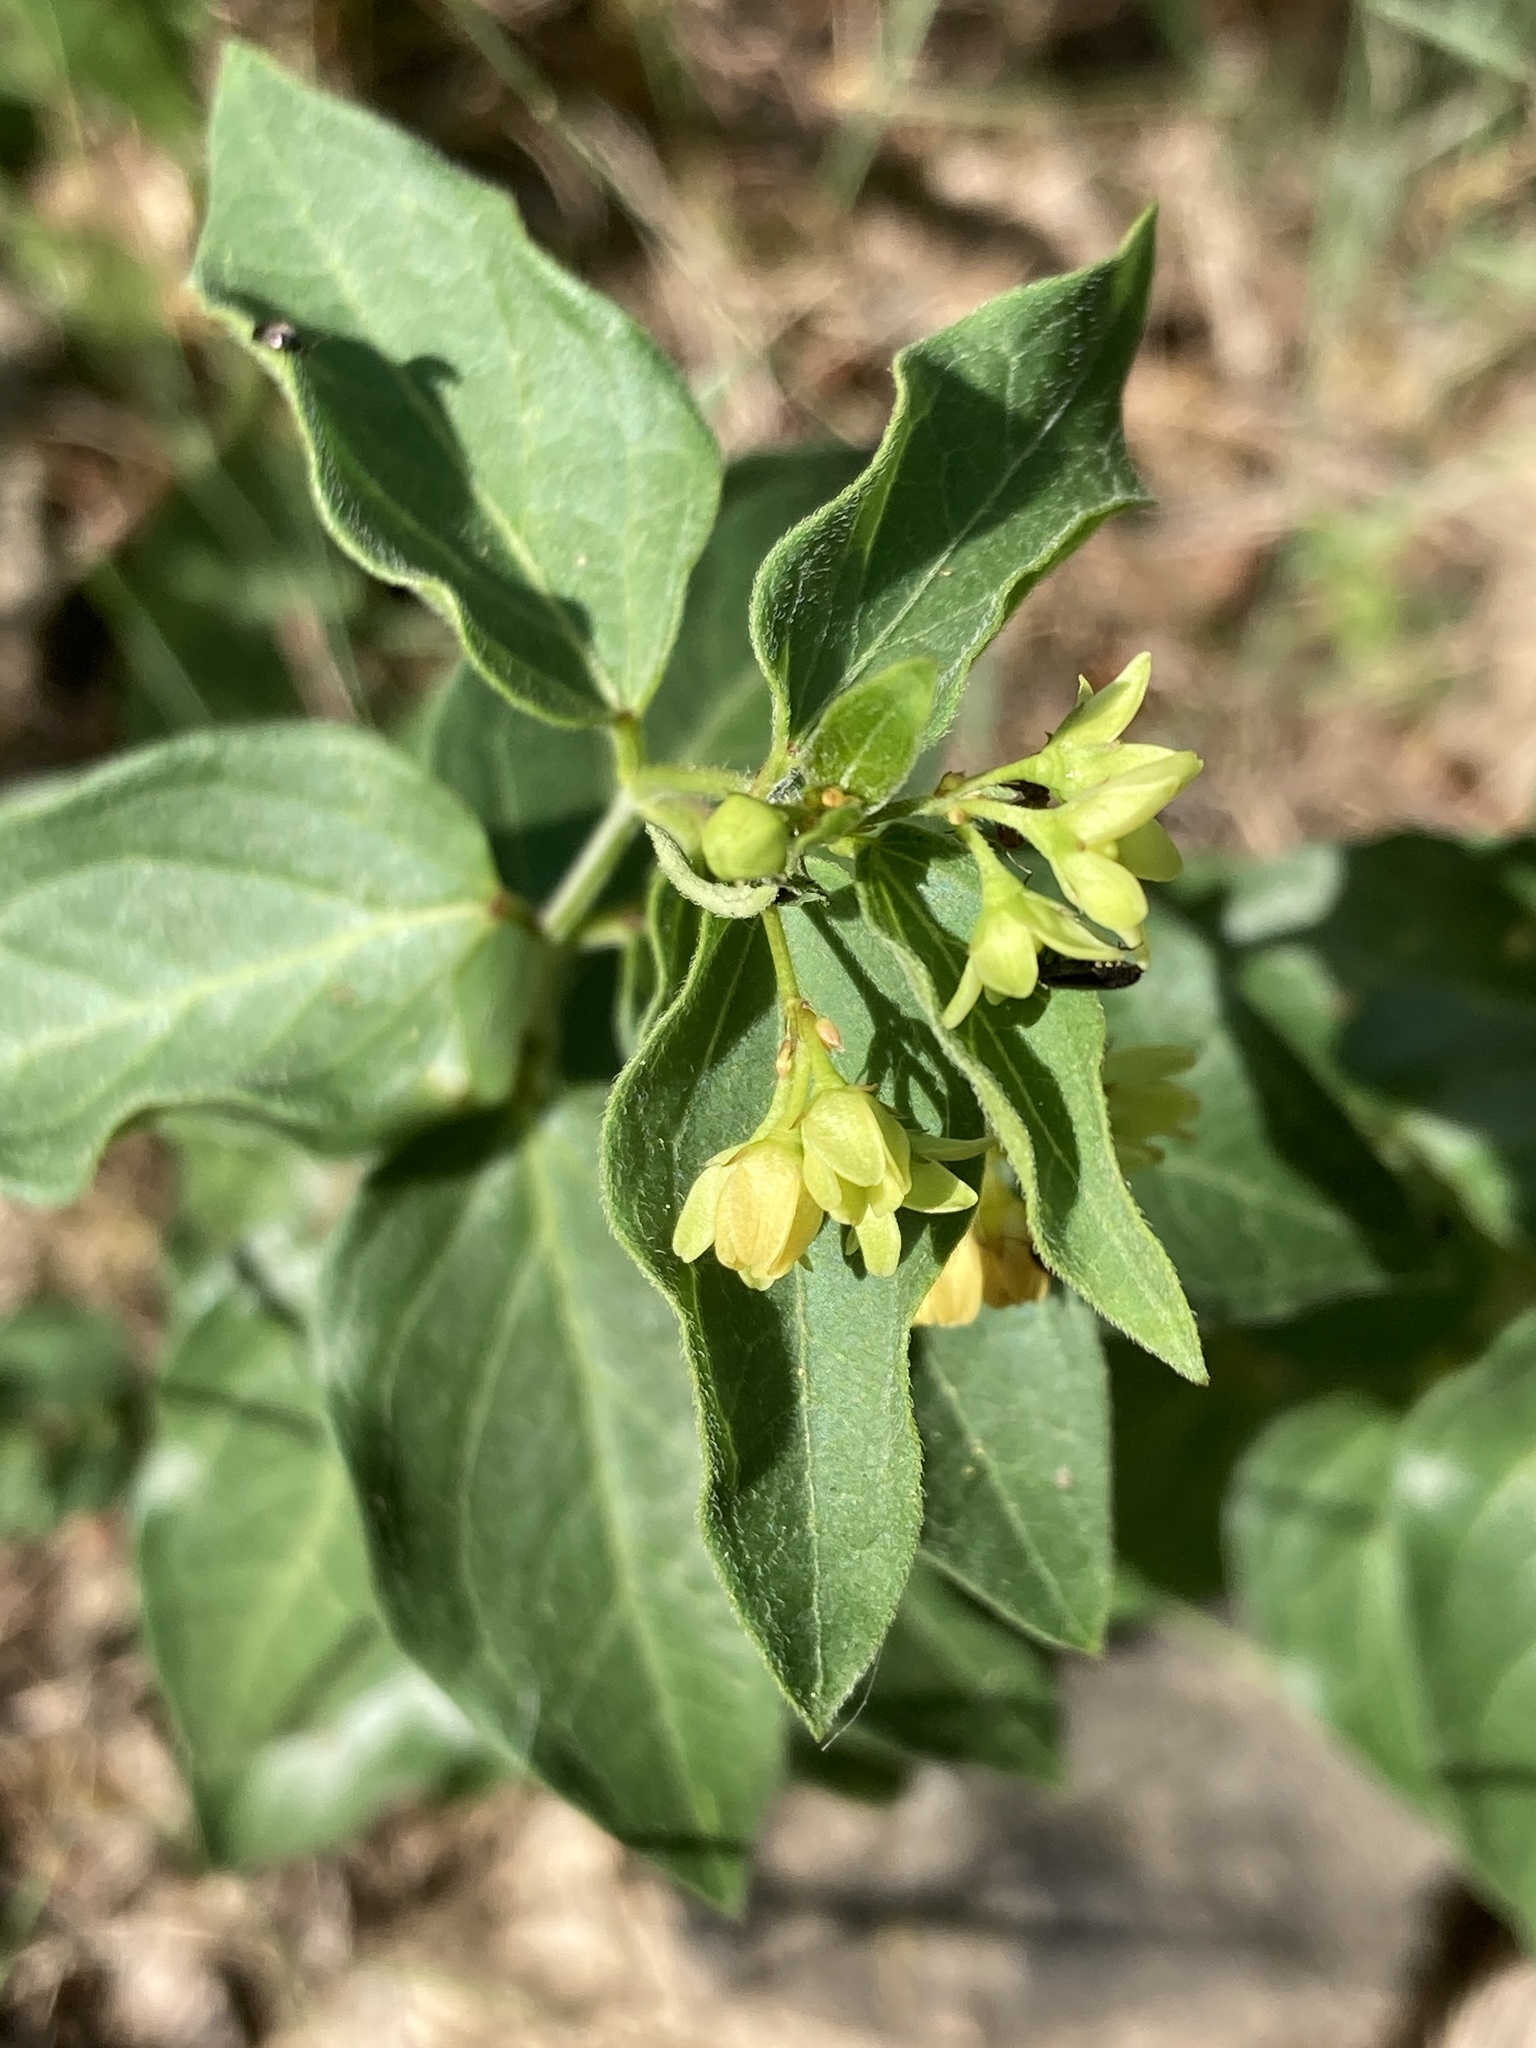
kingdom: Plantae
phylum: Tracheophyta
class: Magnoliopsida
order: Gentianales
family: Apocynaceae
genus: Vincetoxicum
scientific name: Vincetoxicum hirundinaria
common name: White swallowwort
